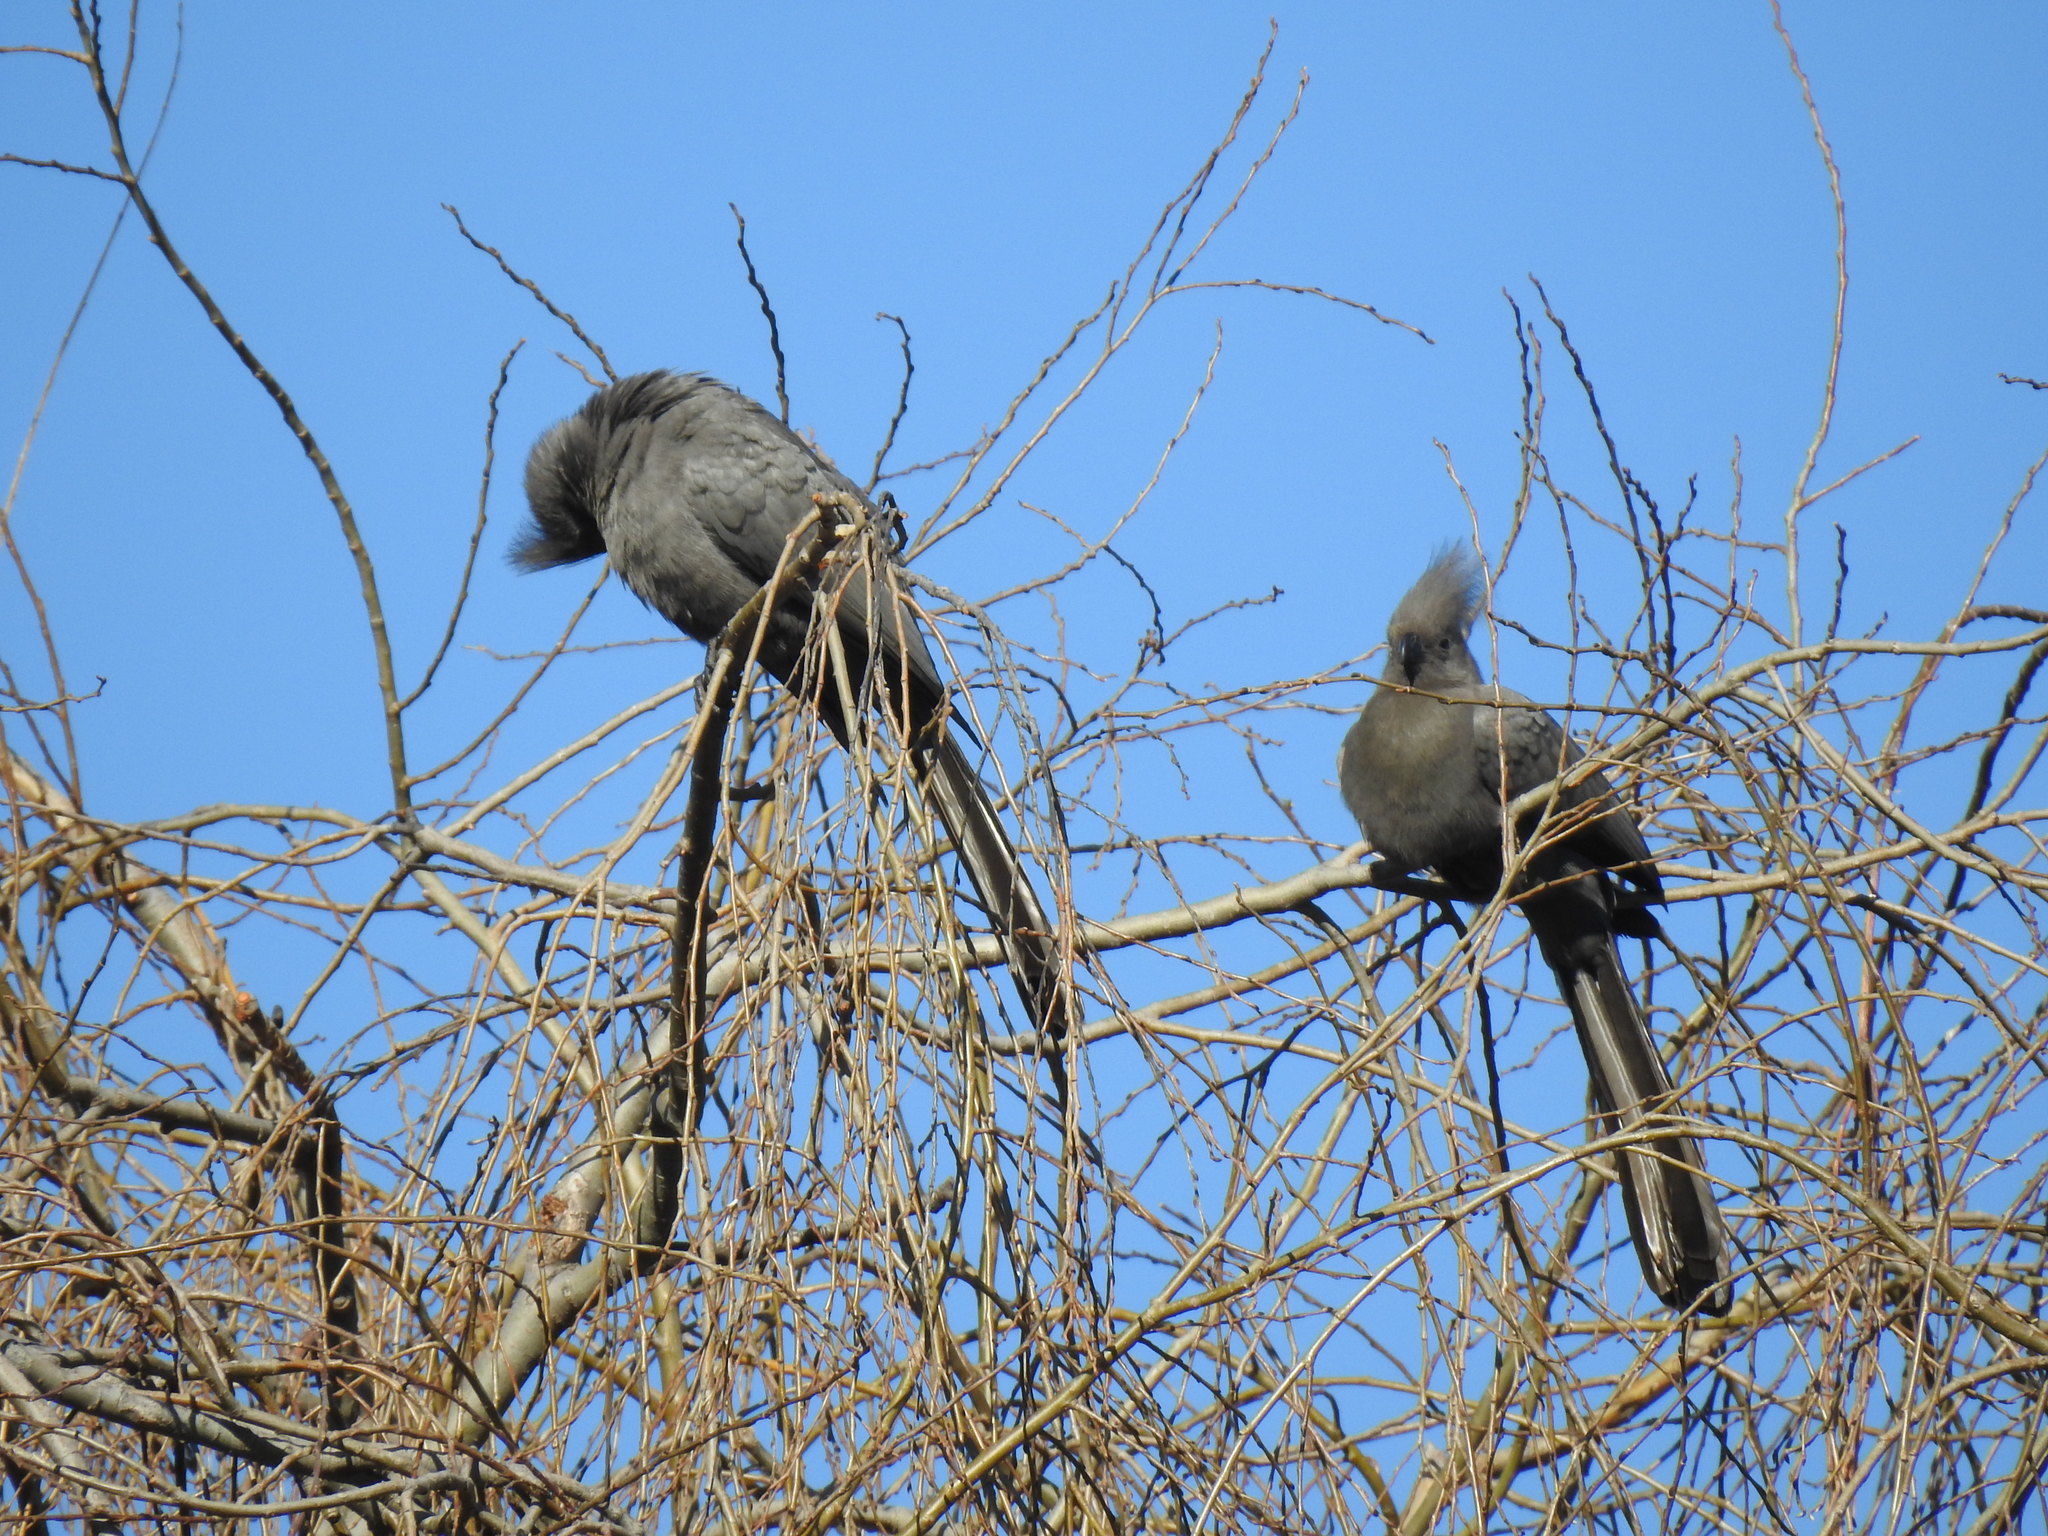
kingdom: Animalia
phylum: Chordata
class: Aves
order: Musophagiformes
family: Musophagidae
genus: Corythaixoides
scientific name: Corythaixoides concolor
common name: Grey go-away-bird
